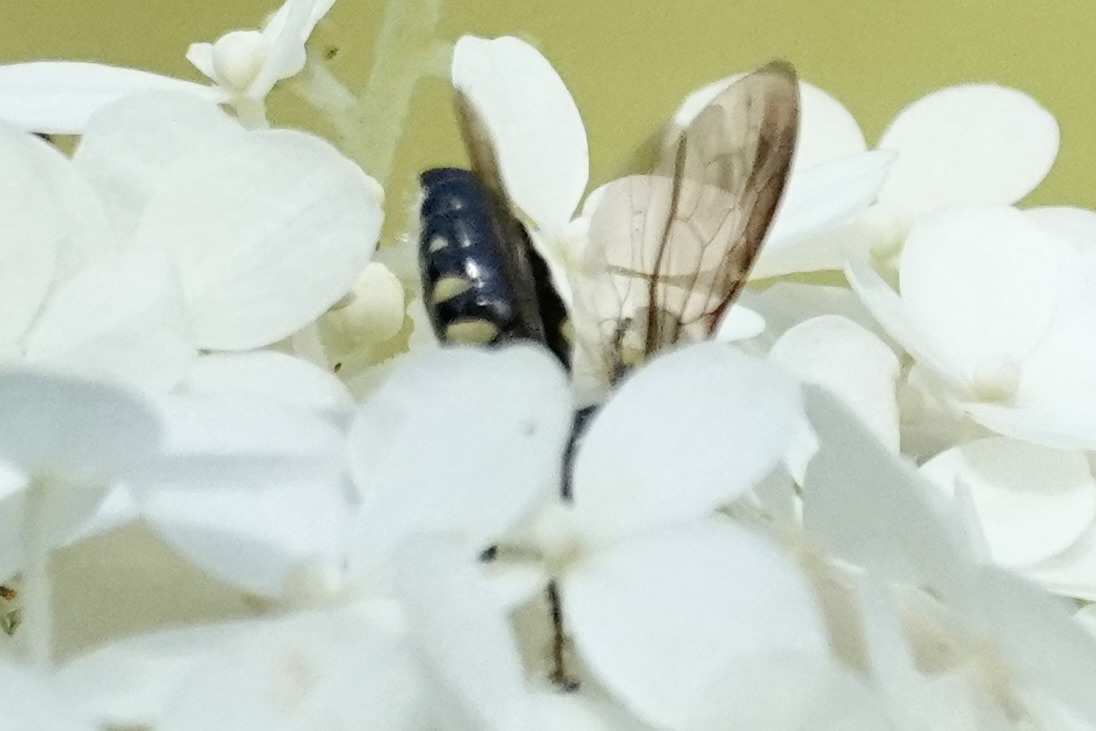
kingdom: Animalia
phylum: Arthropoda
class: Insecta
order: Hymenoptera
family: Tiphiidae
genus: Myzinum
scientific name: Myzinum obscurum
